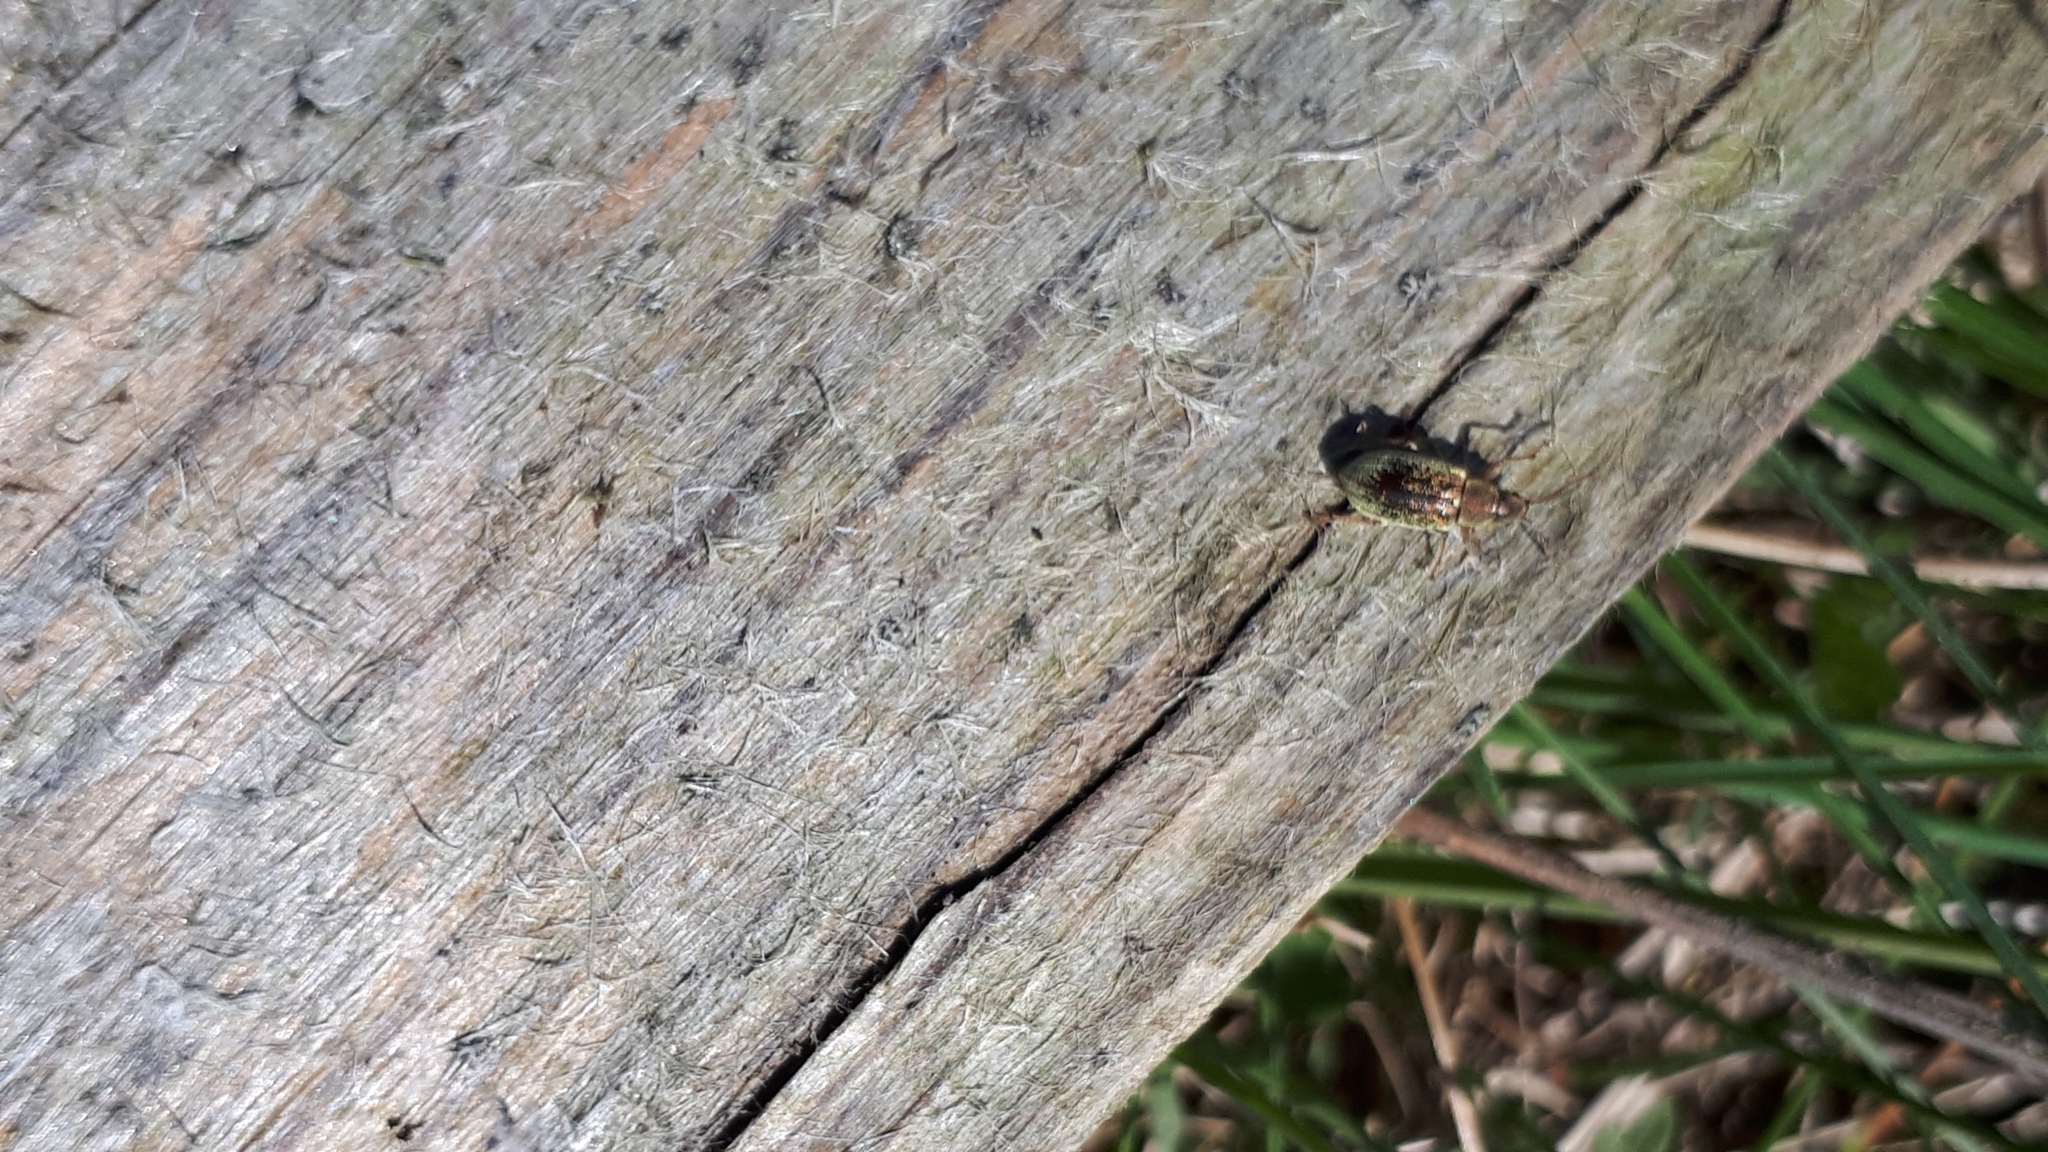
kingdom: Animalia
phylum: Arthropoda
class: Insecta
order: Coleoptera
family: Curculionidae
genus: Phyllobius
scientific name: Phyllobius pyri
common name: Common leaf weevil
